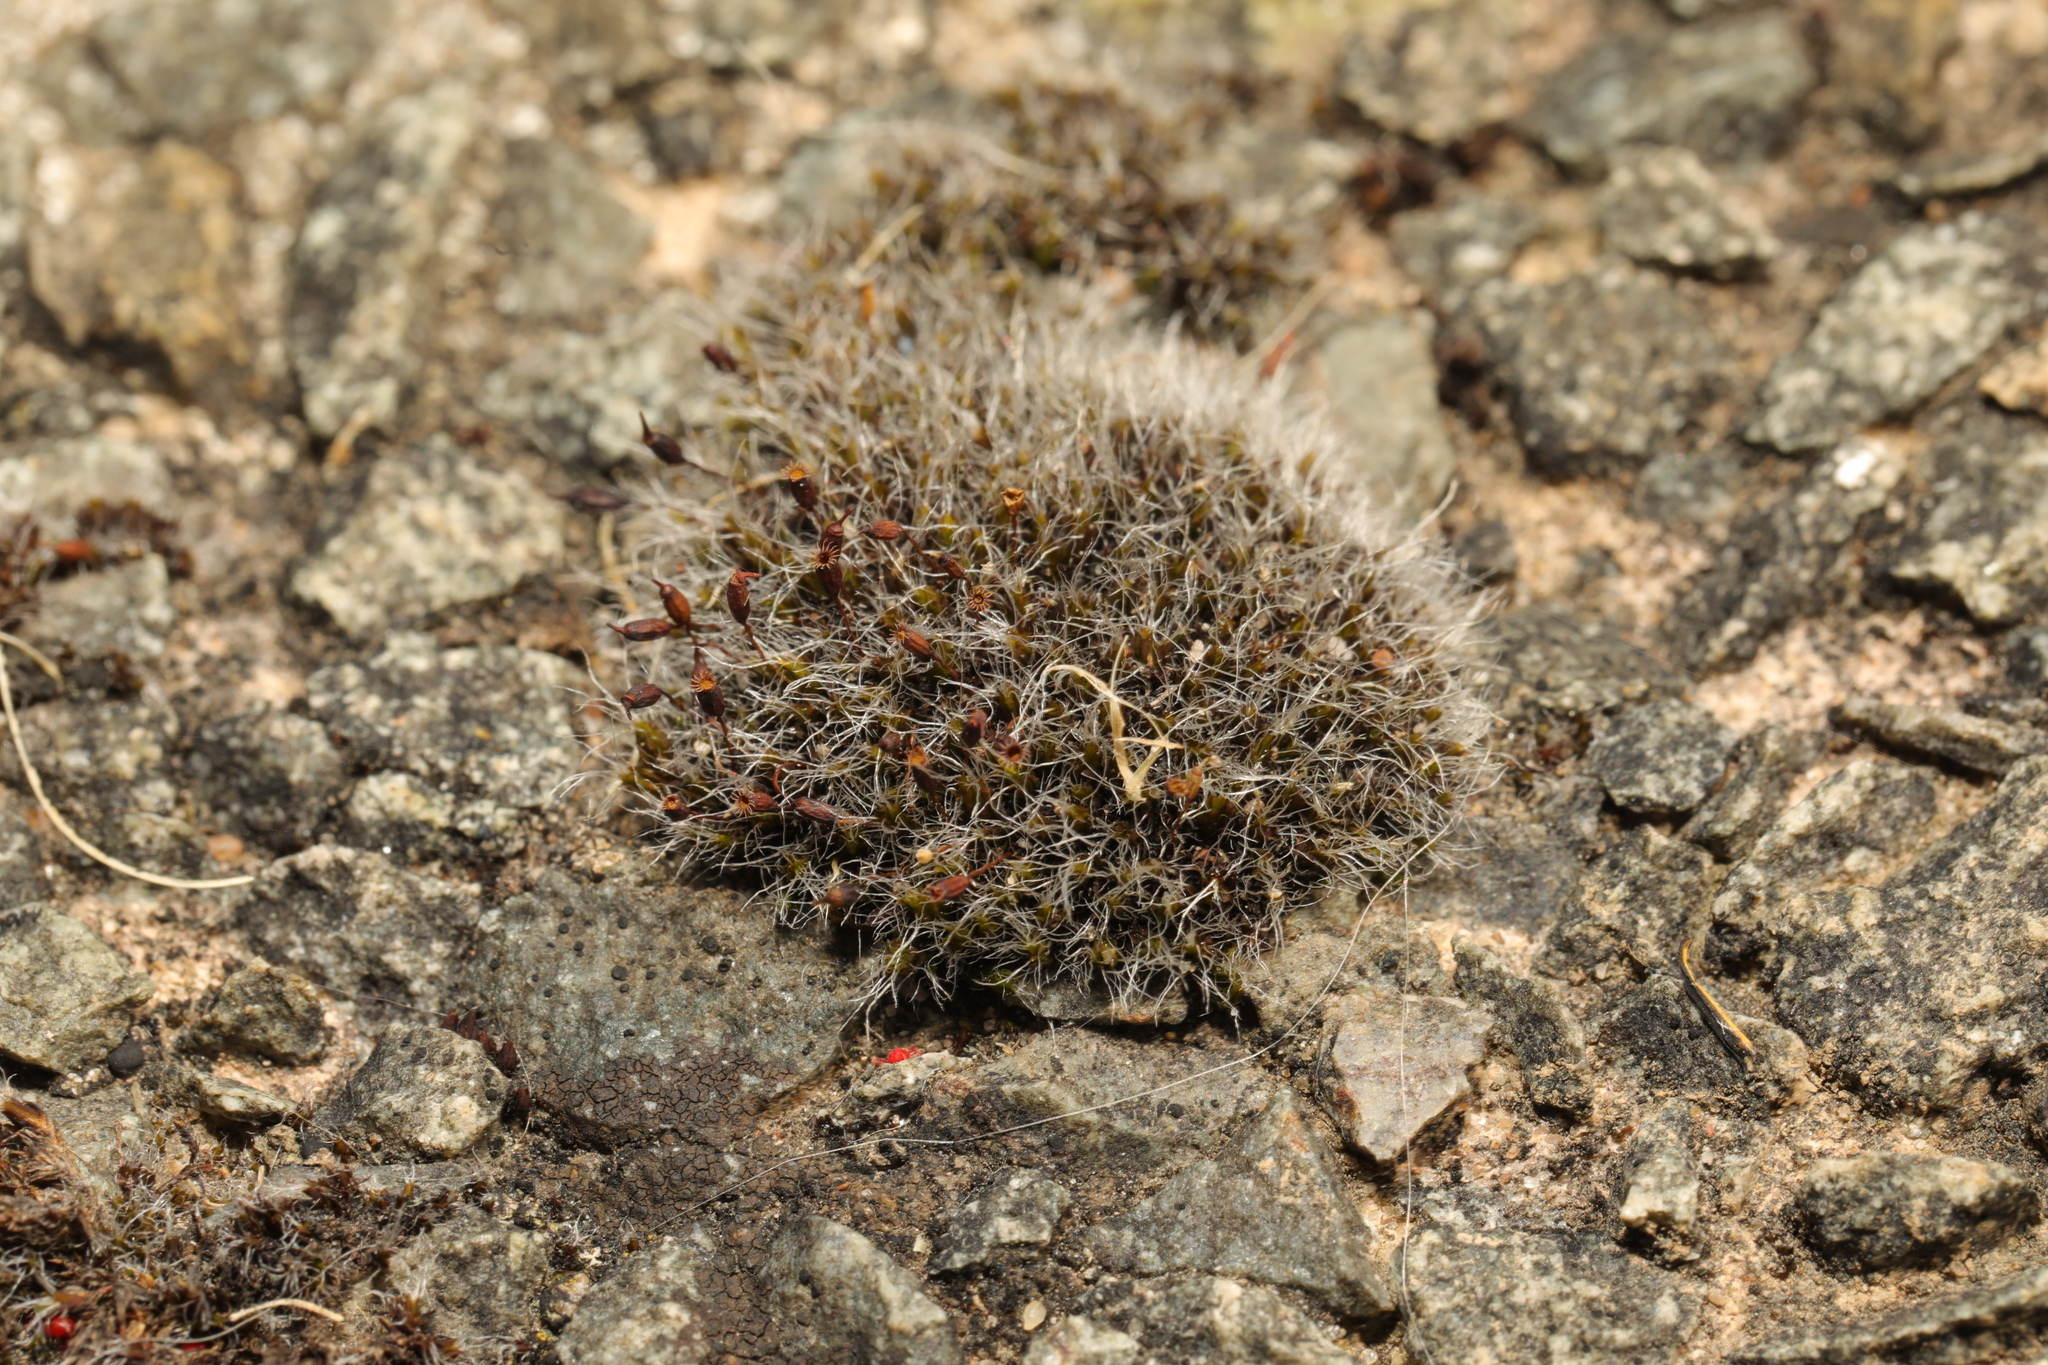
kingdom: Plantae
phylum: Bryophyta
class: Bryopsida
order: Grimmiales
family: Grimmiaceae
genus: Grimmia
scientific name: Grimmia pulvinata
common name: Grey-cushioned grimmia
